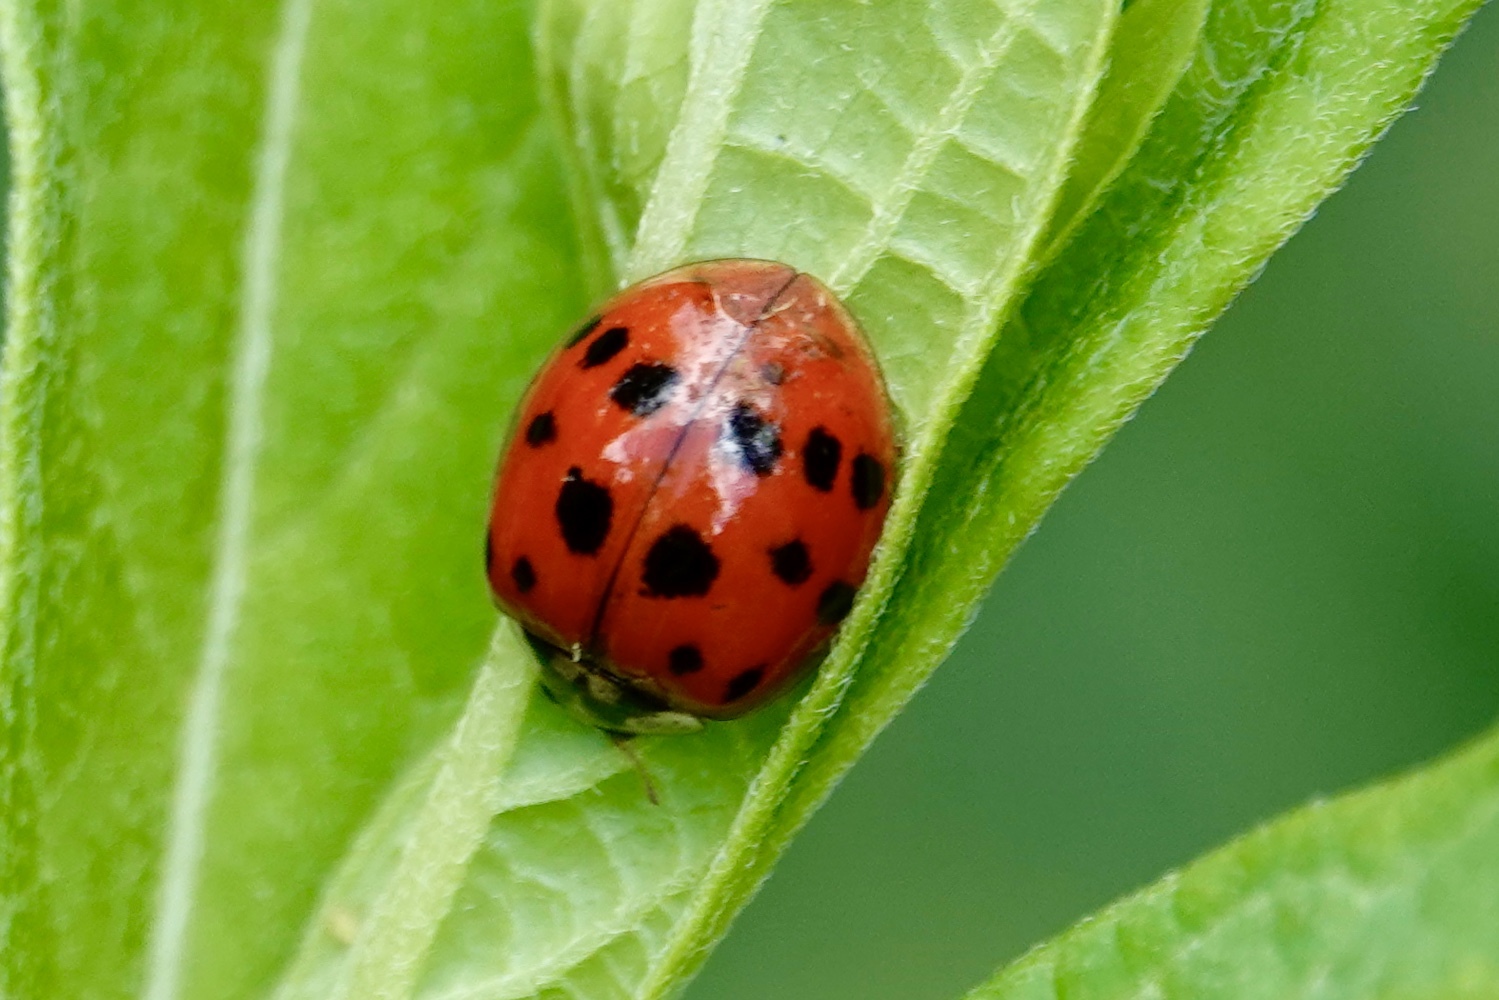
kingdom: Animalia
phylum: Arthropoda
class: Insecta
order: Coleoptera
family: Coccinellidae
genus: Harmonia
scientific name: Harmonia axyridis
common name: Harlequin ladybird
